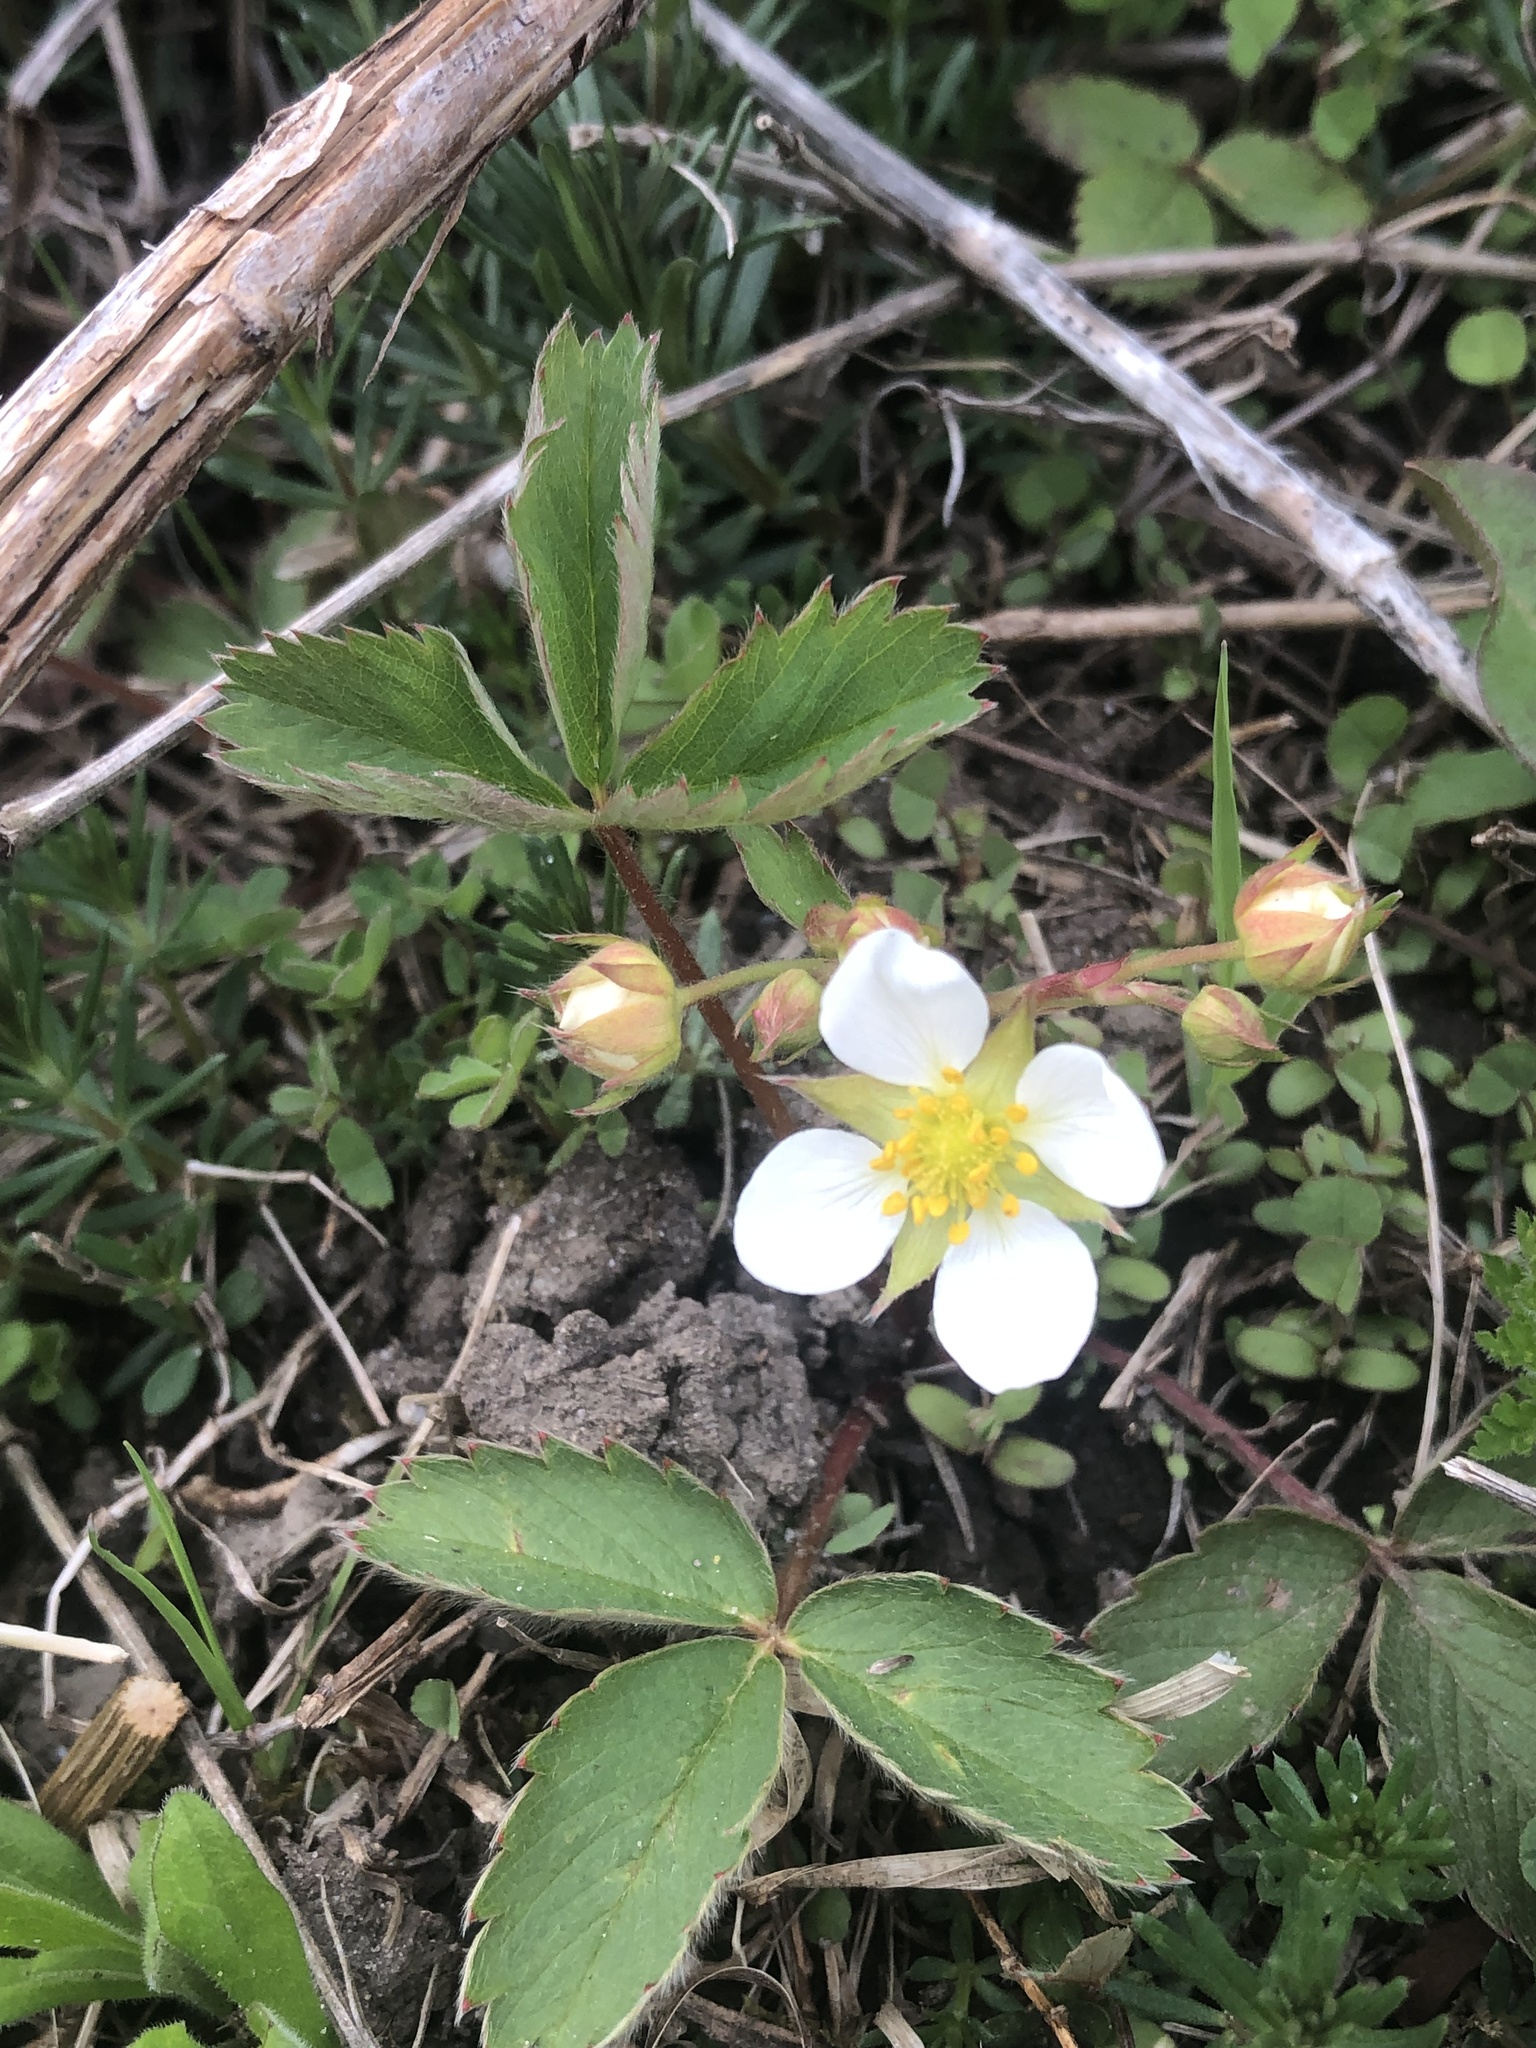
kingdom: Plantae
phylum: Tracheophyta
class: Magnoliopsida
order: Rosales
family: Rosaceae
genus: Fragaria
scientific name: Fragaria virginiana
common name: Thickleaved wild strawberry
